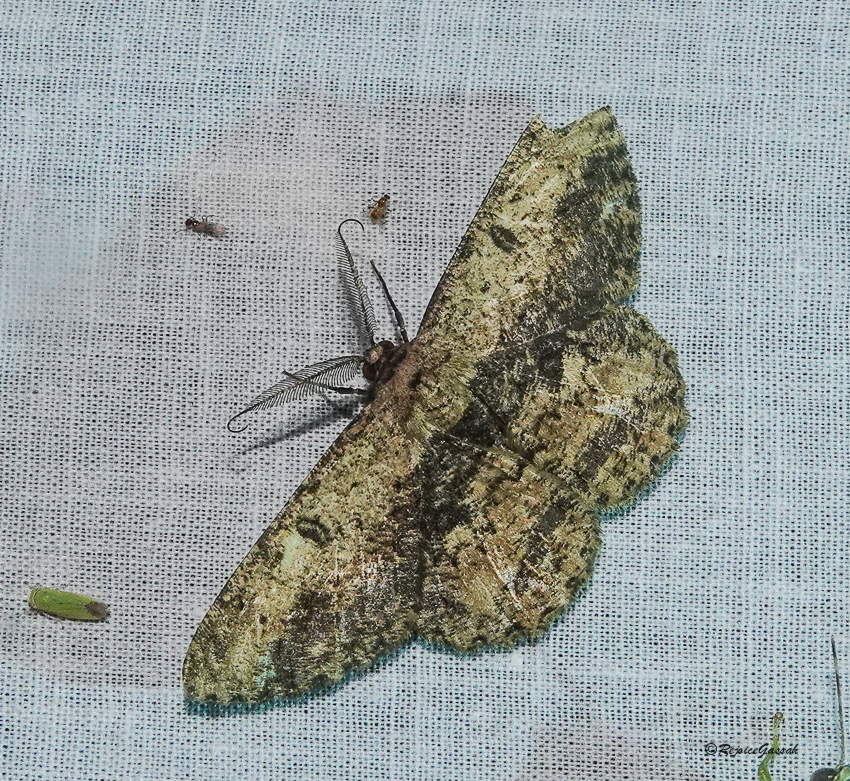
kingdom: Animalia
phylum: Arthropoda
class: Insecta
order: Lepidoptera
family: Geometridae
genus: Hypomecis
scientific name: Hypomecis separata
